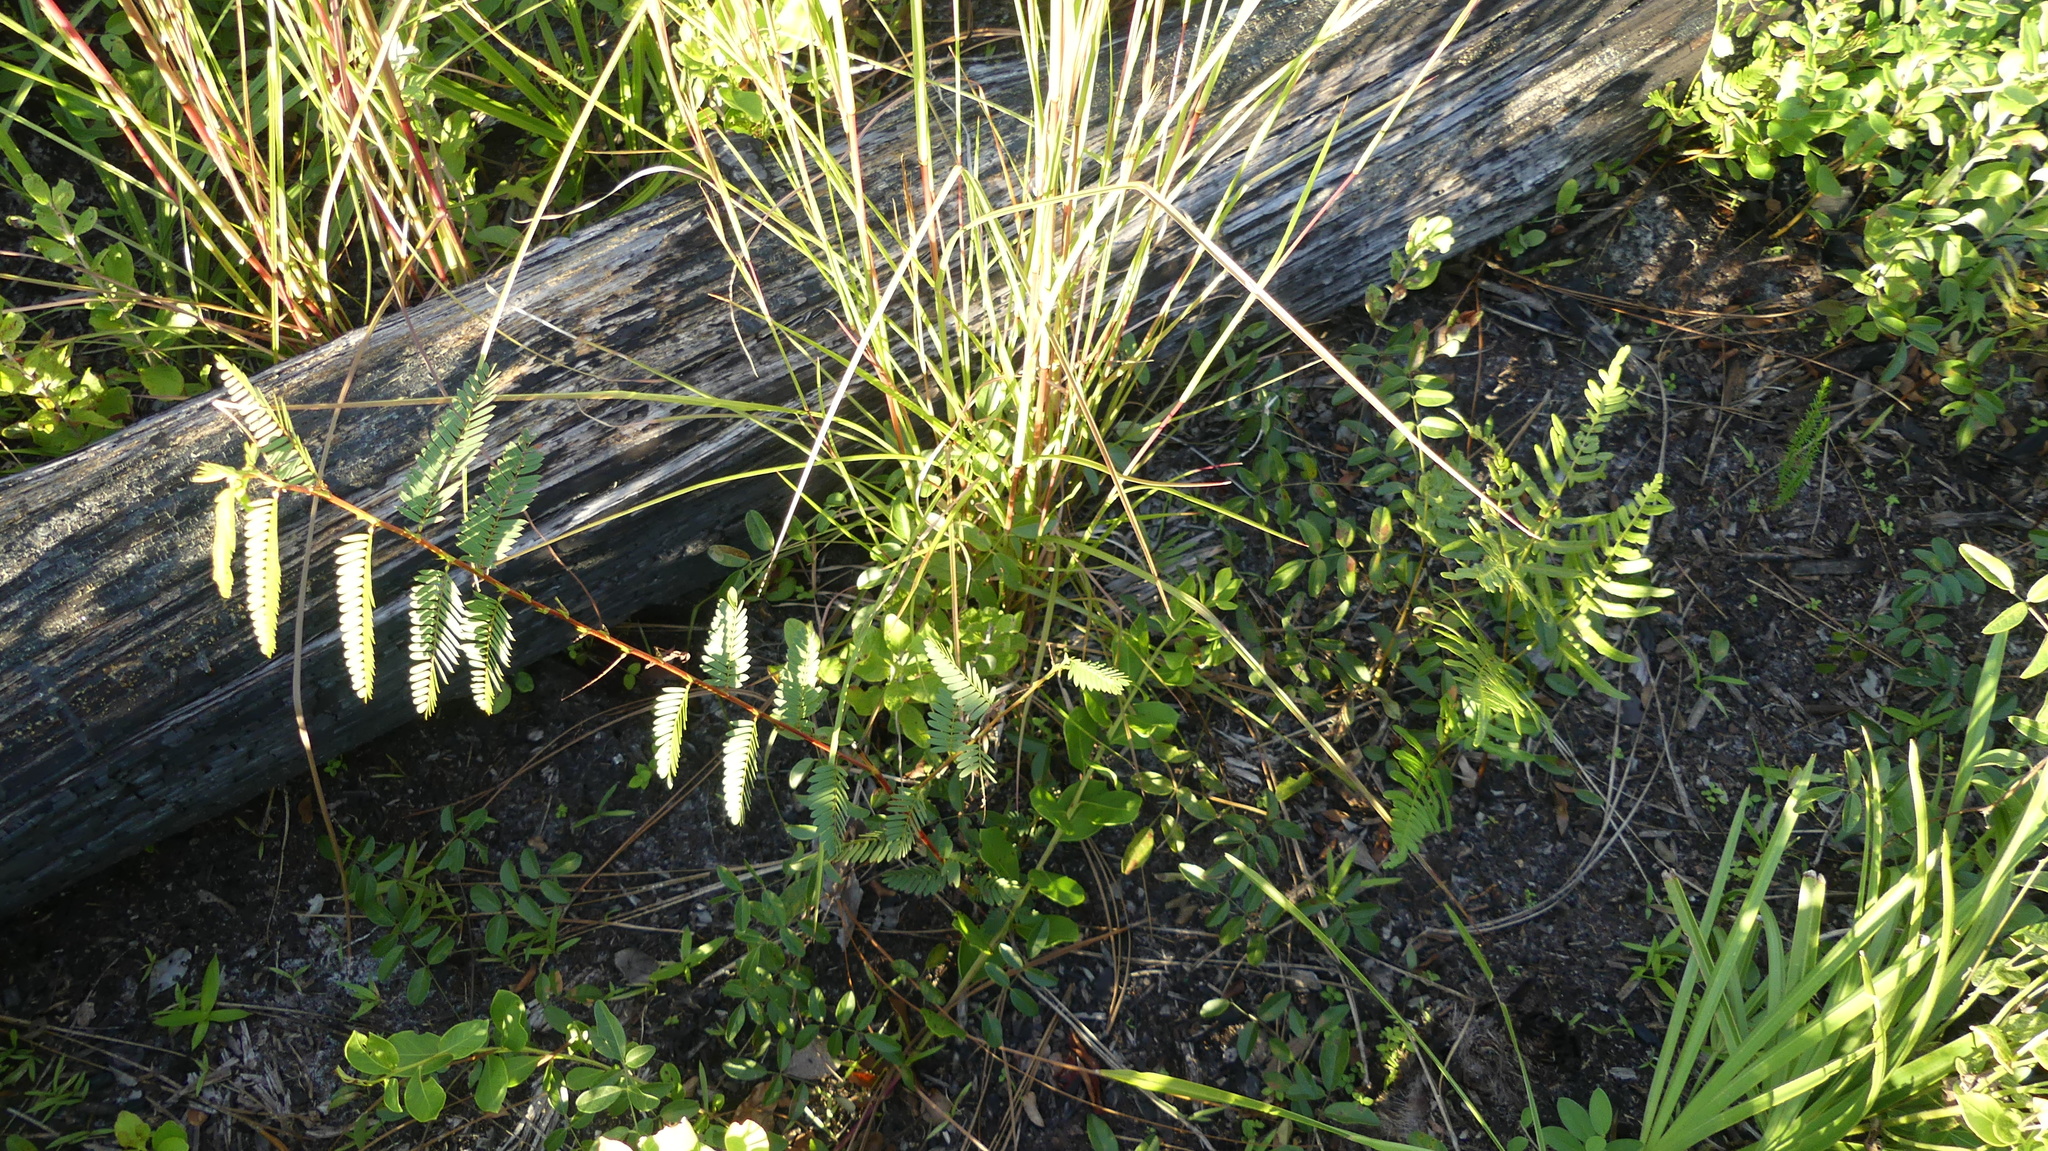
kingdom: Plantae
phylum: Tracheophyta
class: Magnoliopsida
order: Fabales
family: Fabaceae
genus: Chamaecrista
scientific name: Chamaecrista fasciculata
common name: Golden cassia
